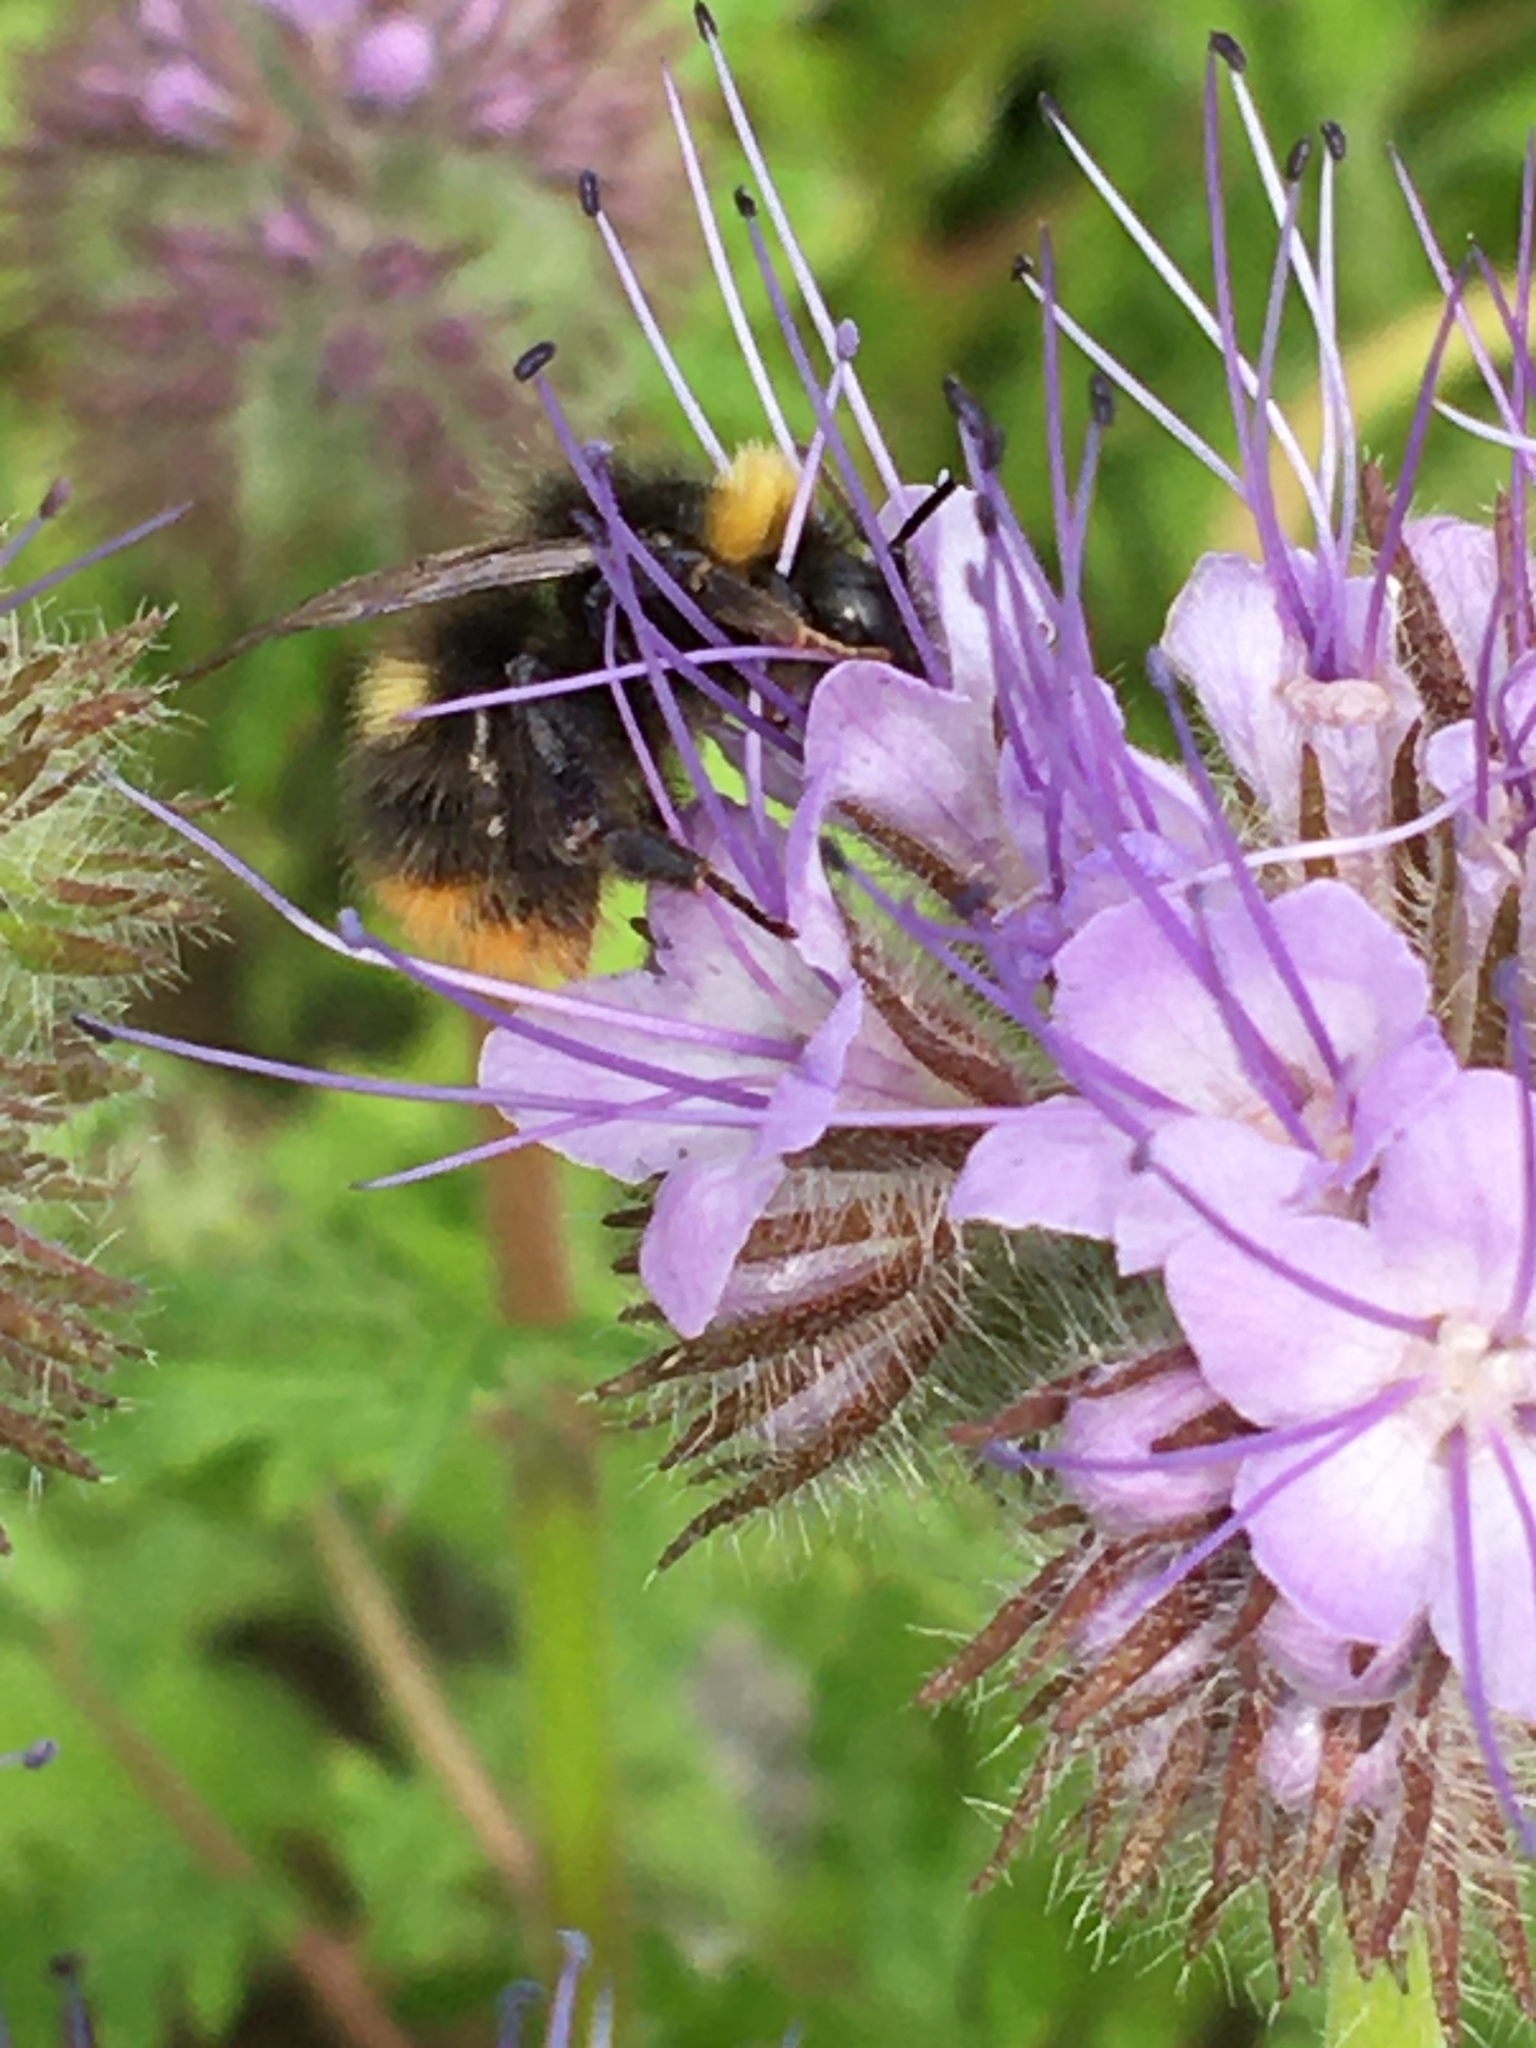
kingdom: Animalia
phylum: Arthropoda
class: Insecta
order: Hymenoptera
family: Apidae
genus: Bombus
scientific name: Bombus pratorum
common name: Early humble-bee
